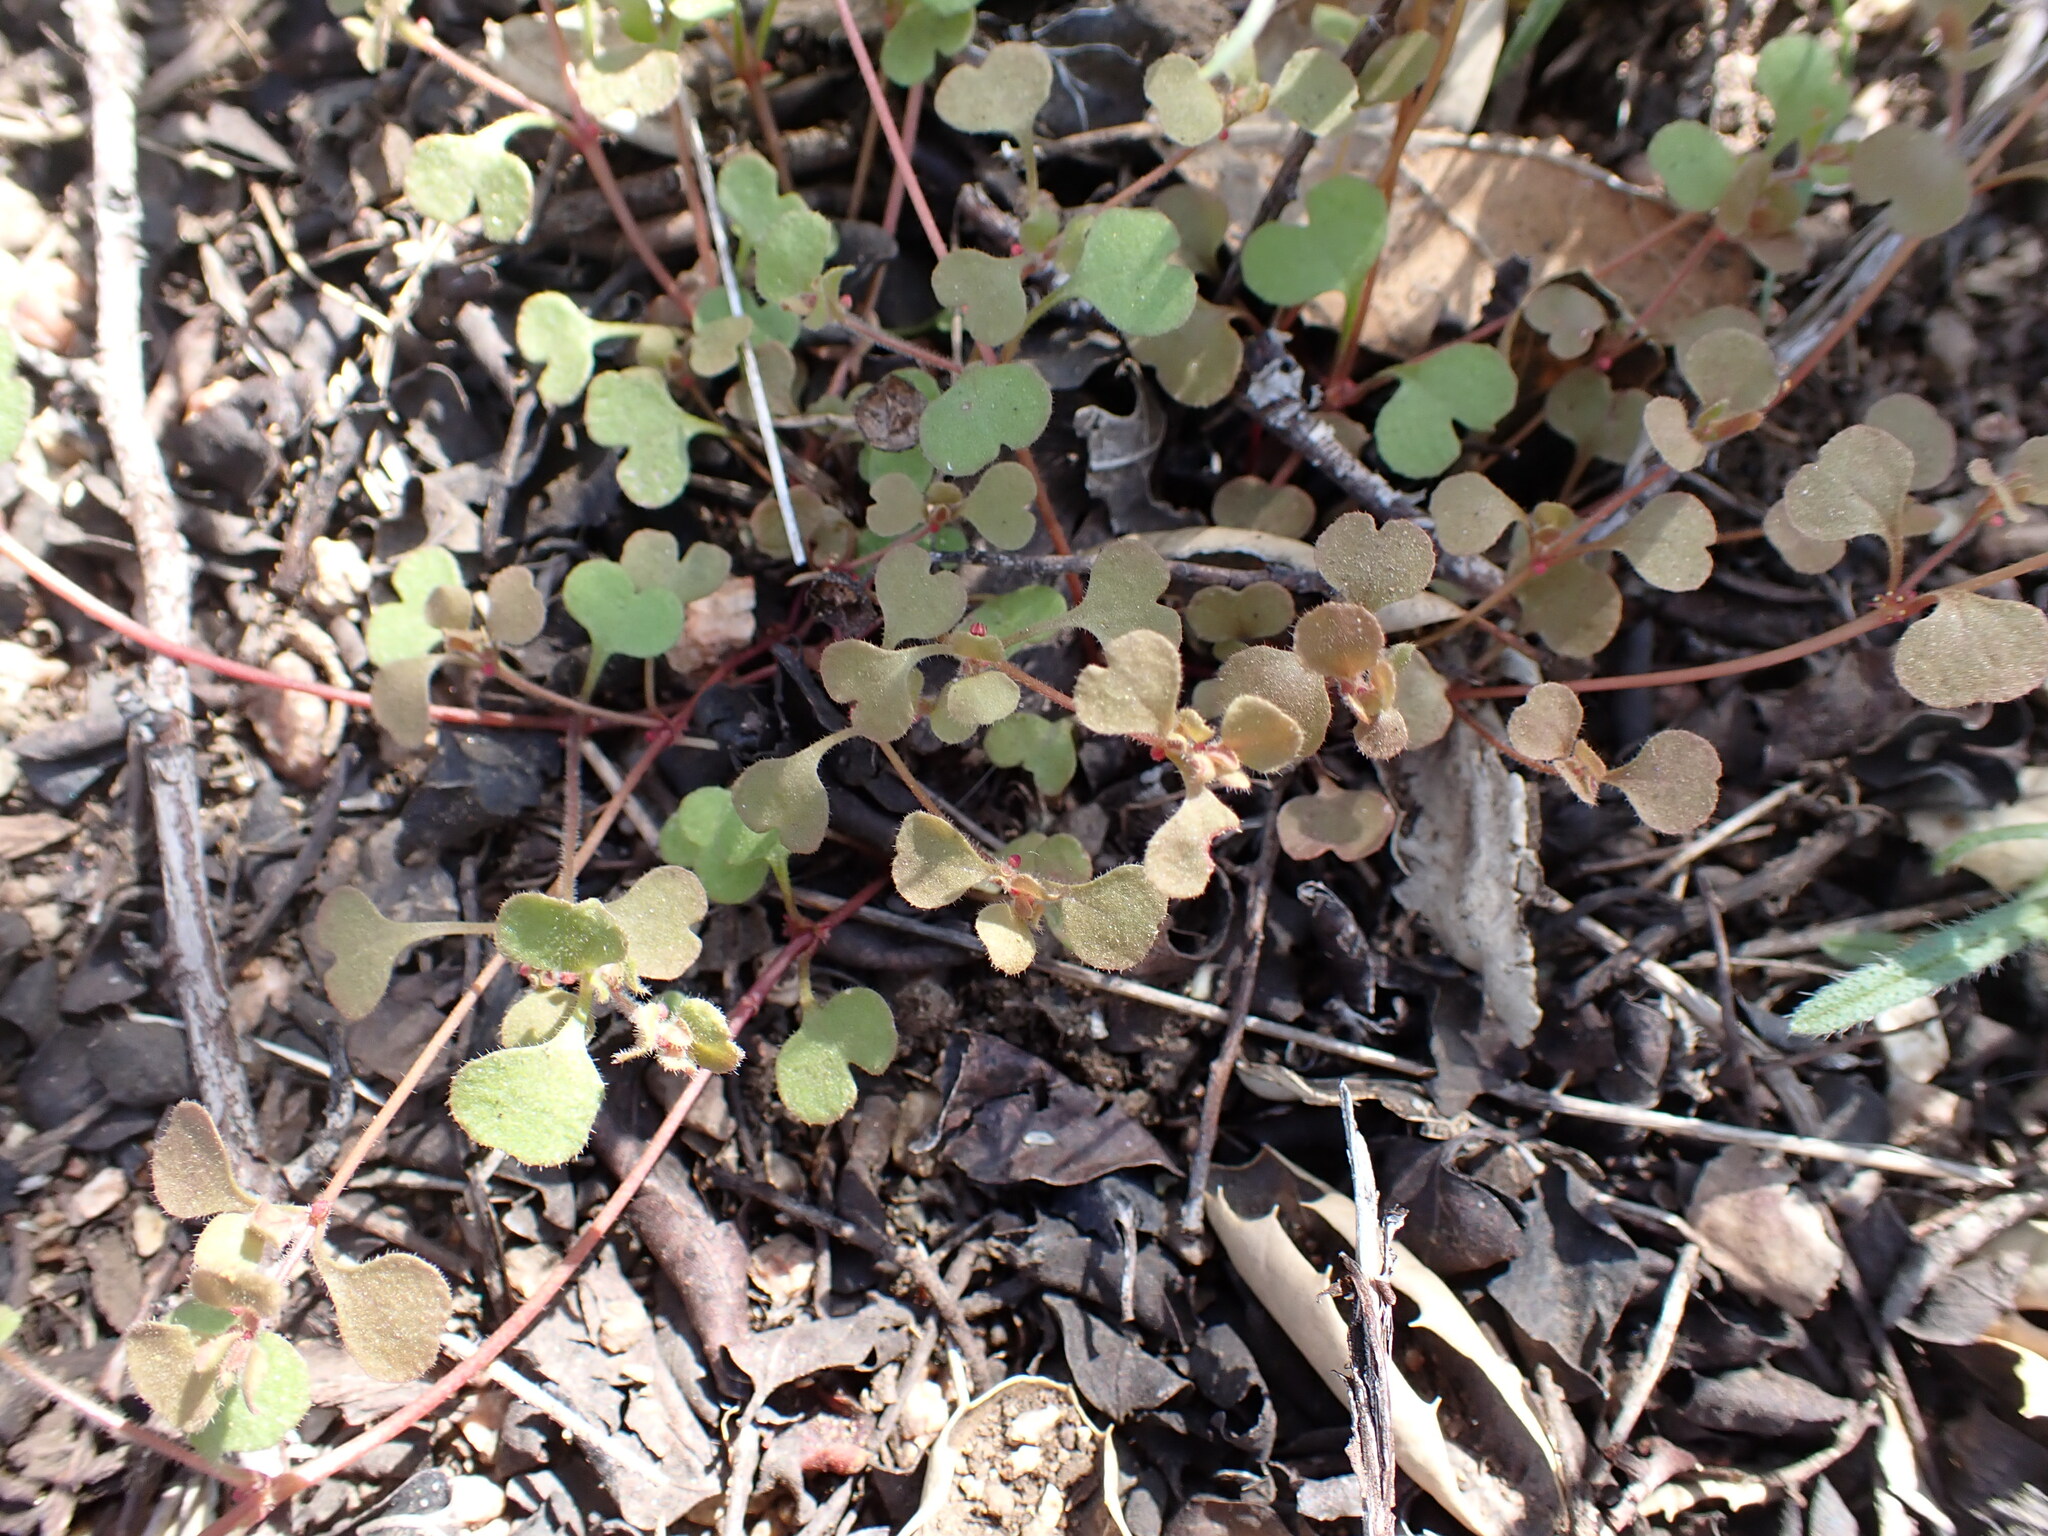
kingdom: Plantae
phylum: Tracheophyta
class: Magnoliopsida
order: Caryophyllales
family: Polygonaceae
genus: Pterostegia
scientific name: Pterostegia drymarioides
